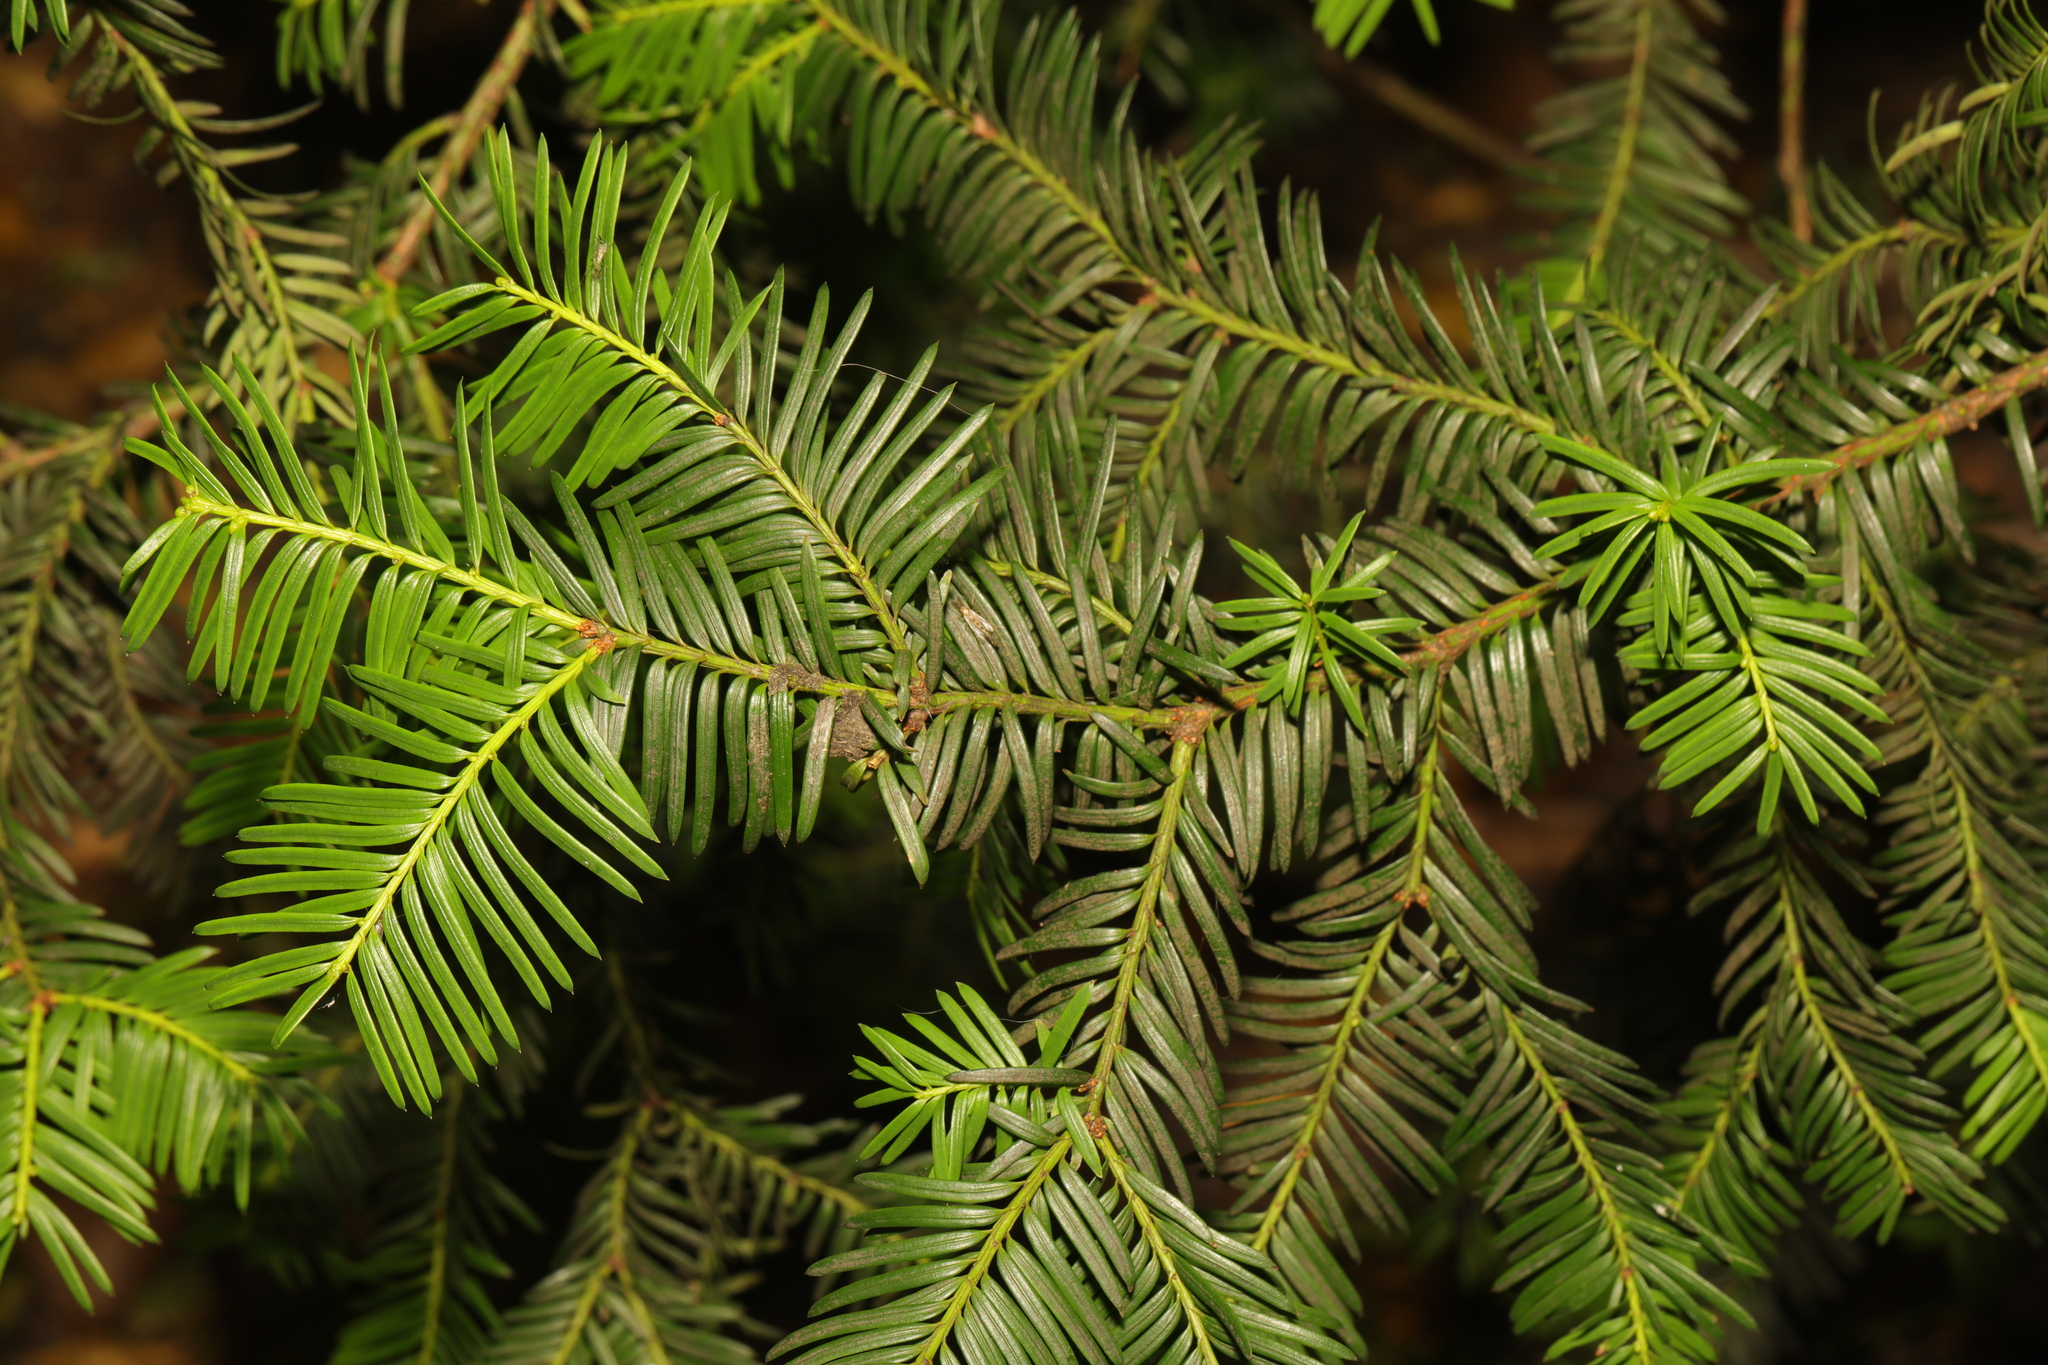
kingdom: Plantae
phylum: Tracheophyta
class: Pinopsida
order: Pinales
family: Taxaceae
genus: Taxus
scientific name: Taxus baccata
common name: Yew
